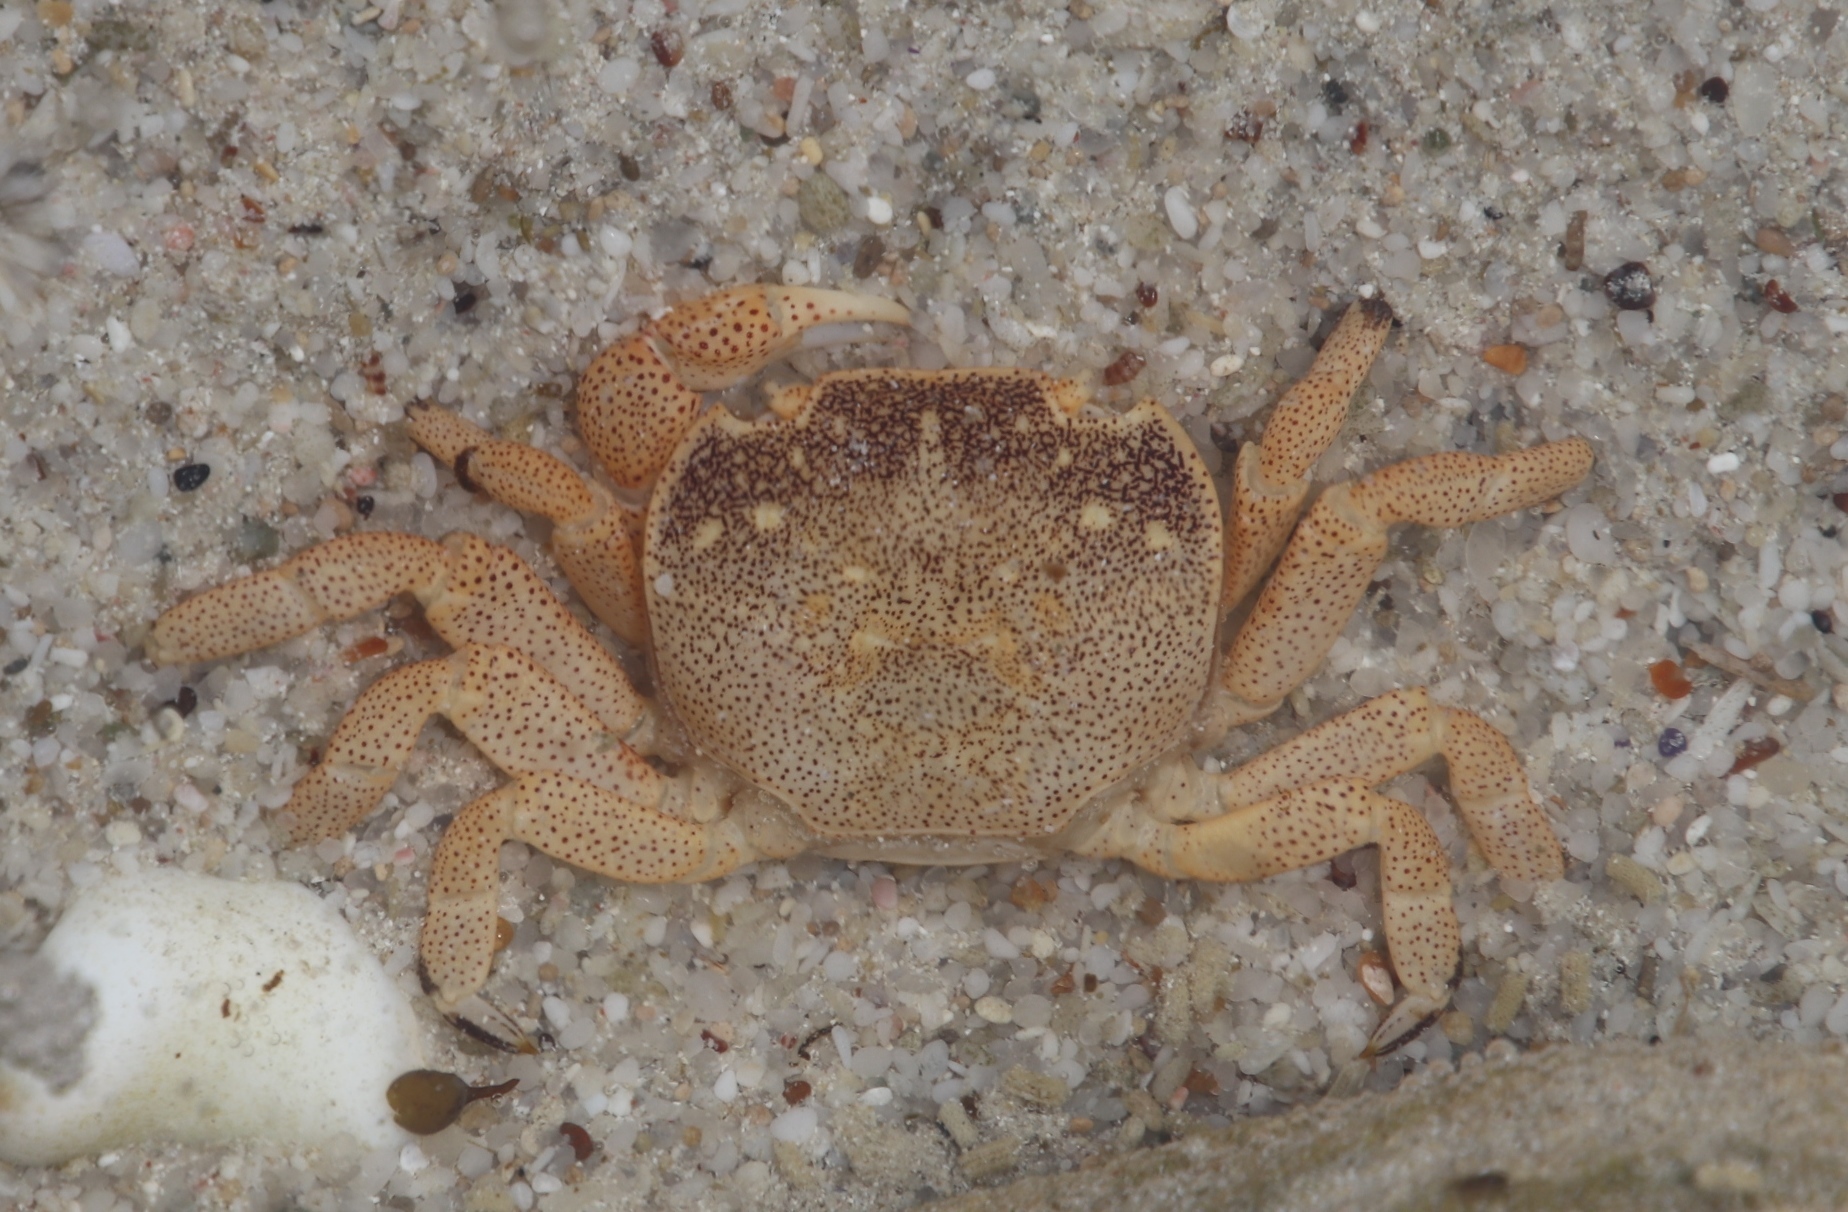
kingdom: Animalia
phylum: Arthropoda
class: Malacostraca
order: Decapoda
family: Varunidae
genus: Cyclograpsus
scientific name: Cyclograpsus punctatus
